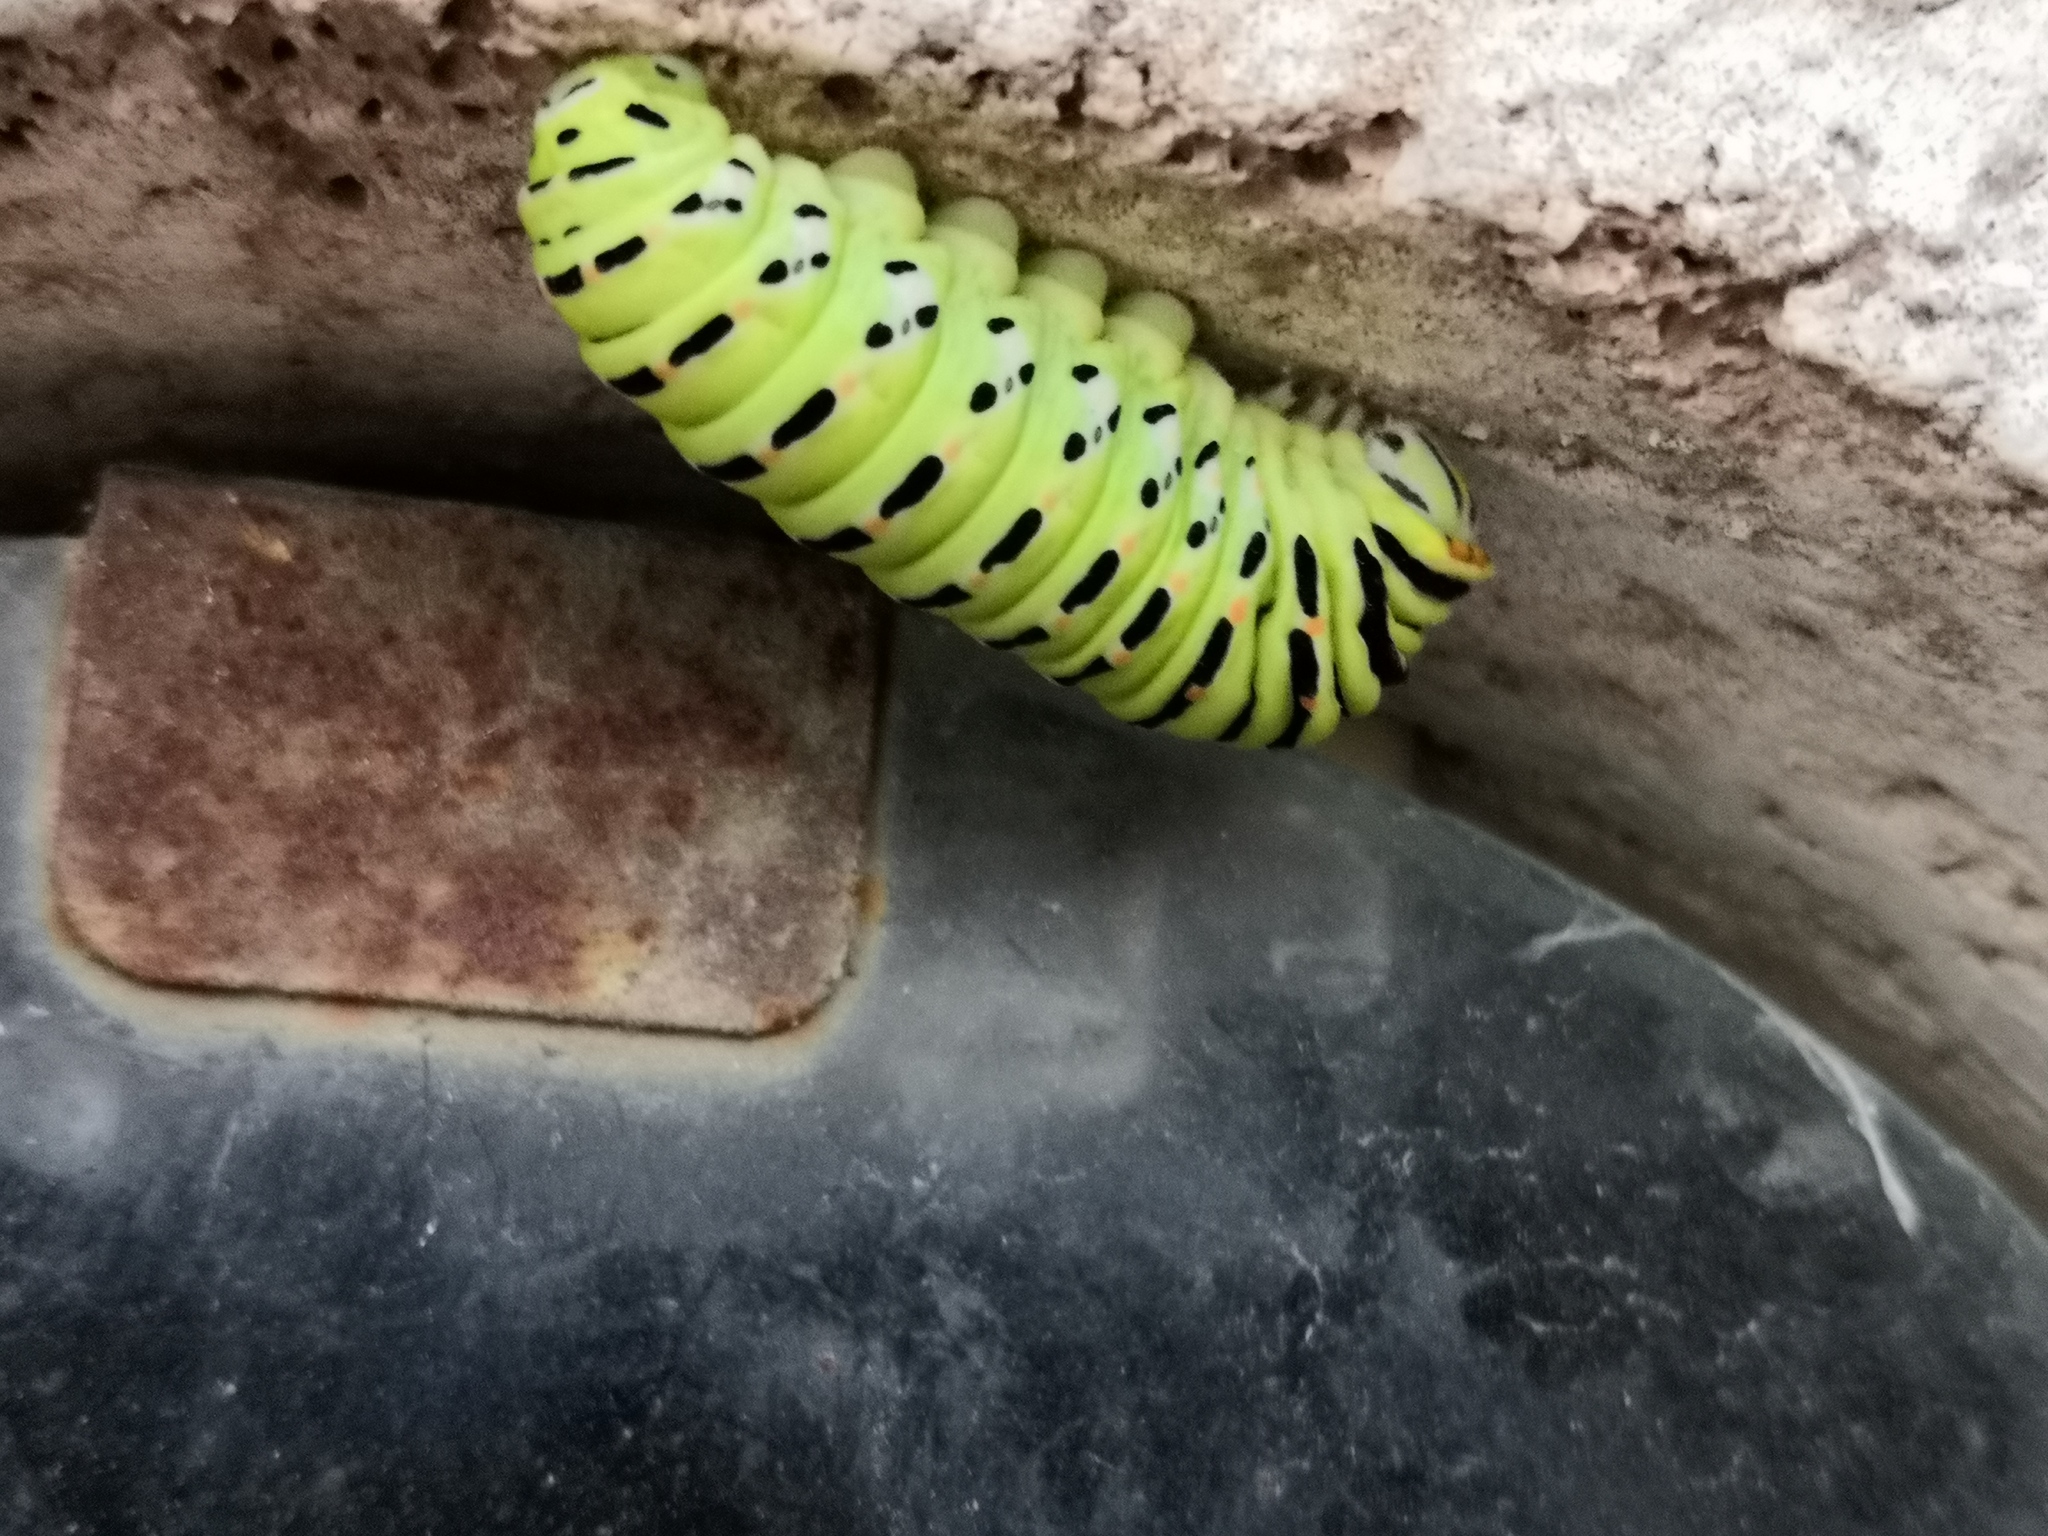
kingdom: Animalia
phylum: Arthropoda
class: Insecta
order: Lepidoptera
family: Papilionidae
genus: Papilio
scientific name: Papilio machaon
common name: Swallowtail
